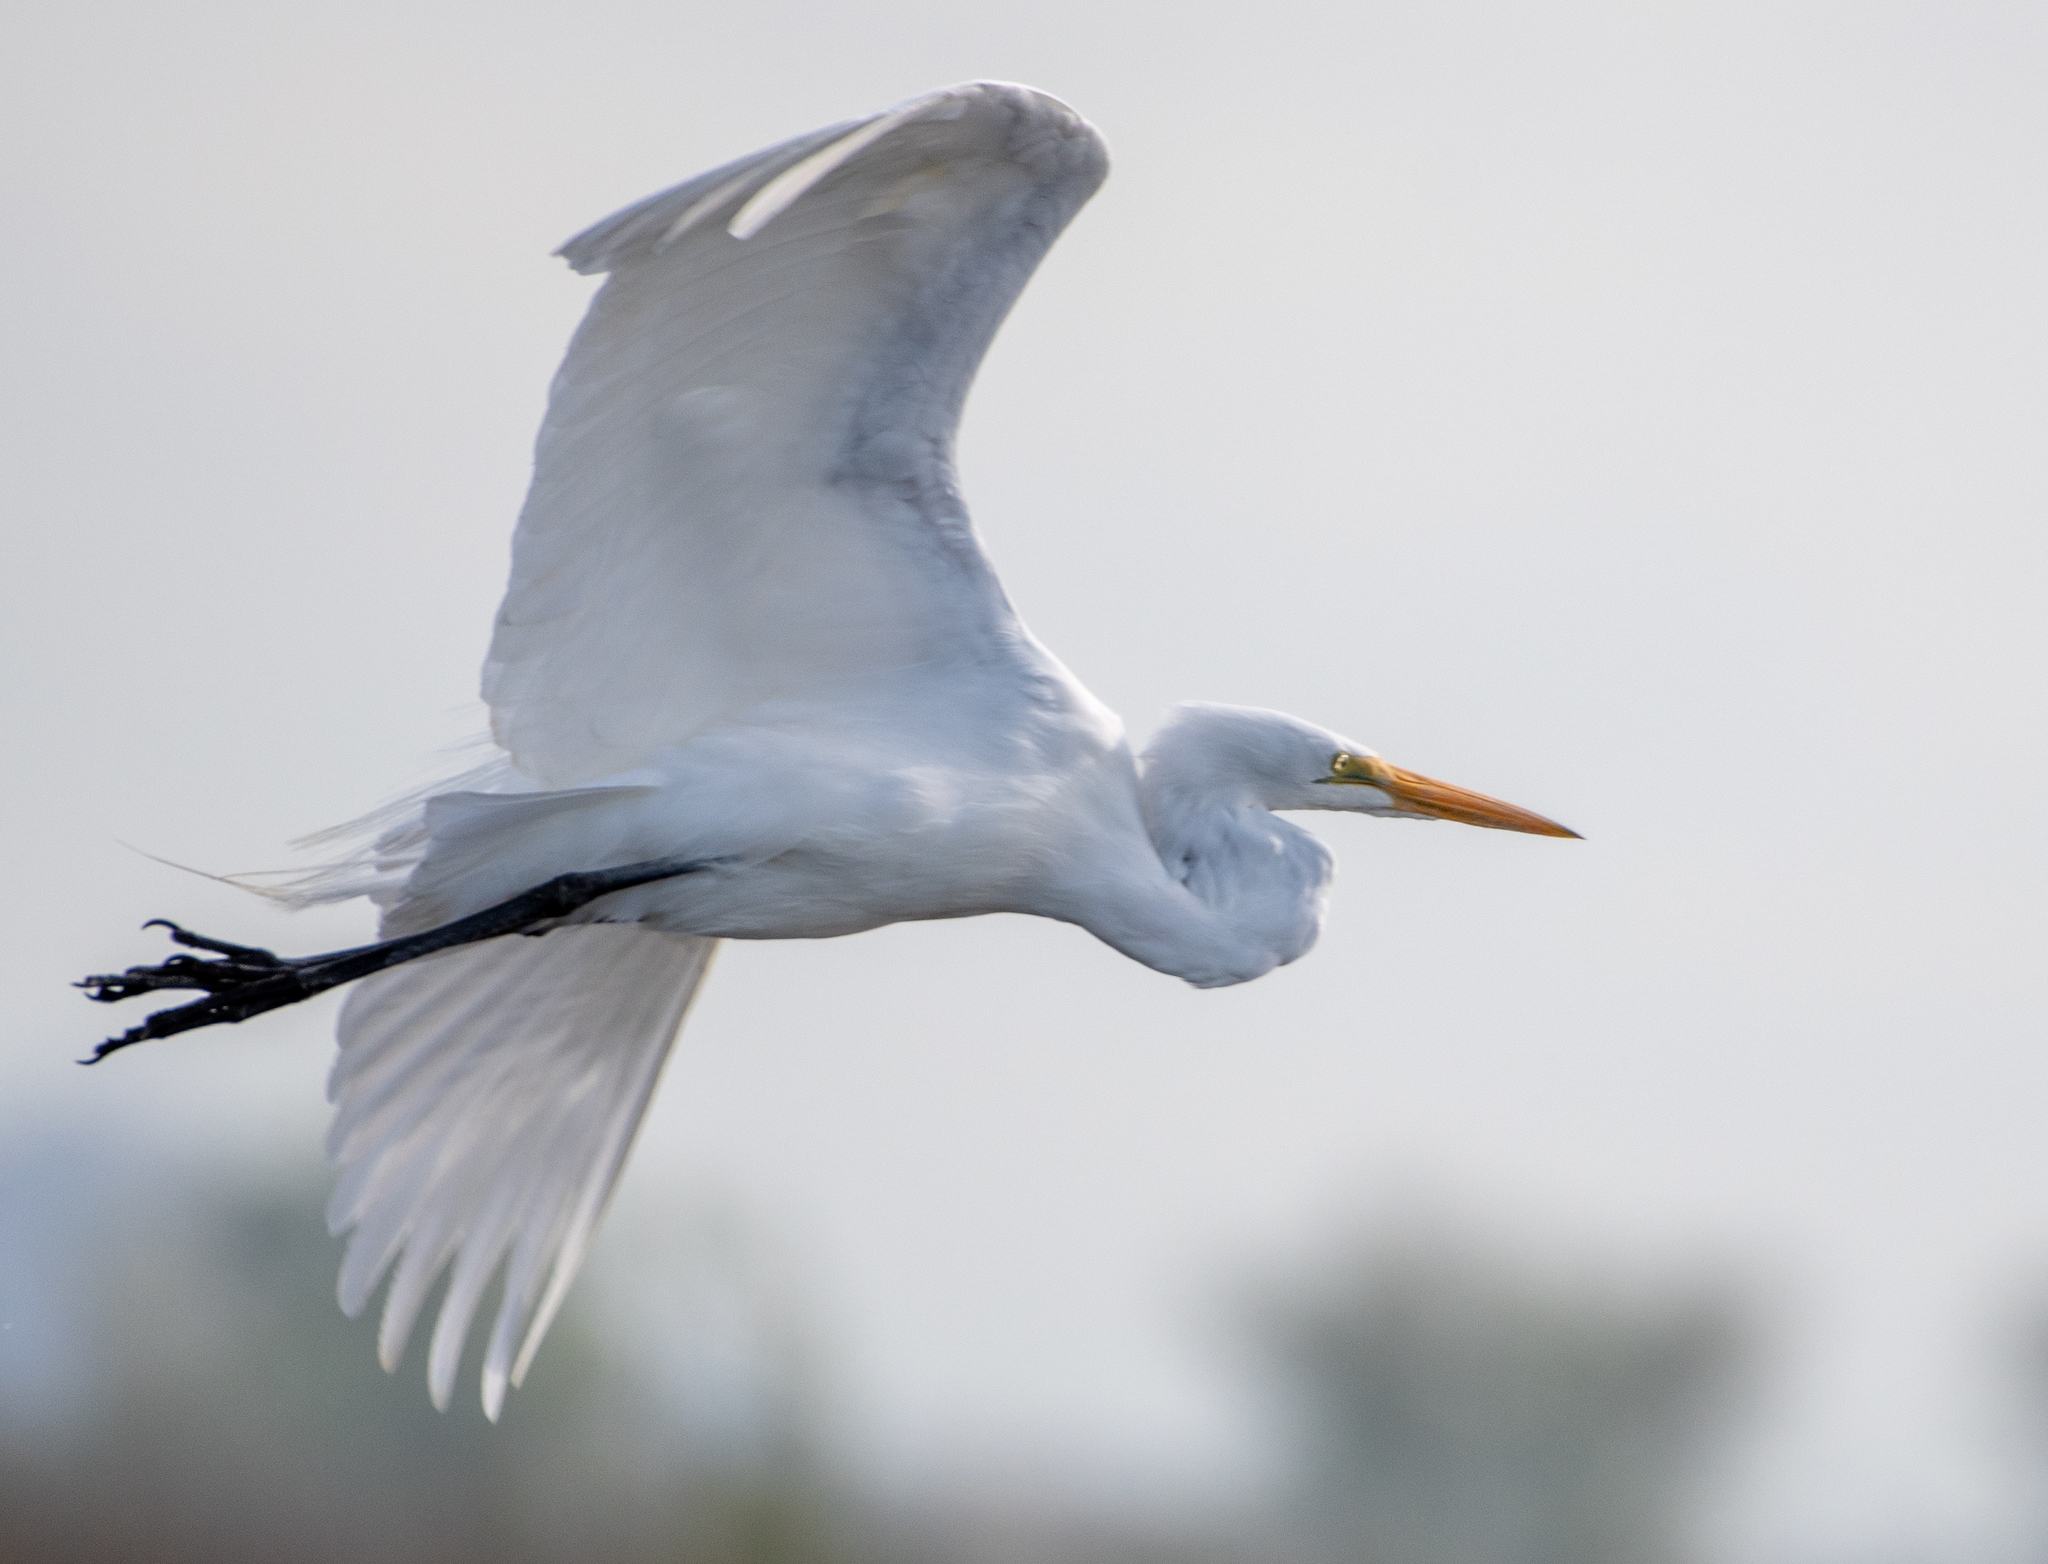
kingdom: Animalia
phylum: Chordata
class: Aves
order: Pelecaniformes
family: Ardeidae
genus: Ardea
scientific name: Ardea alba
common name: Great egret
